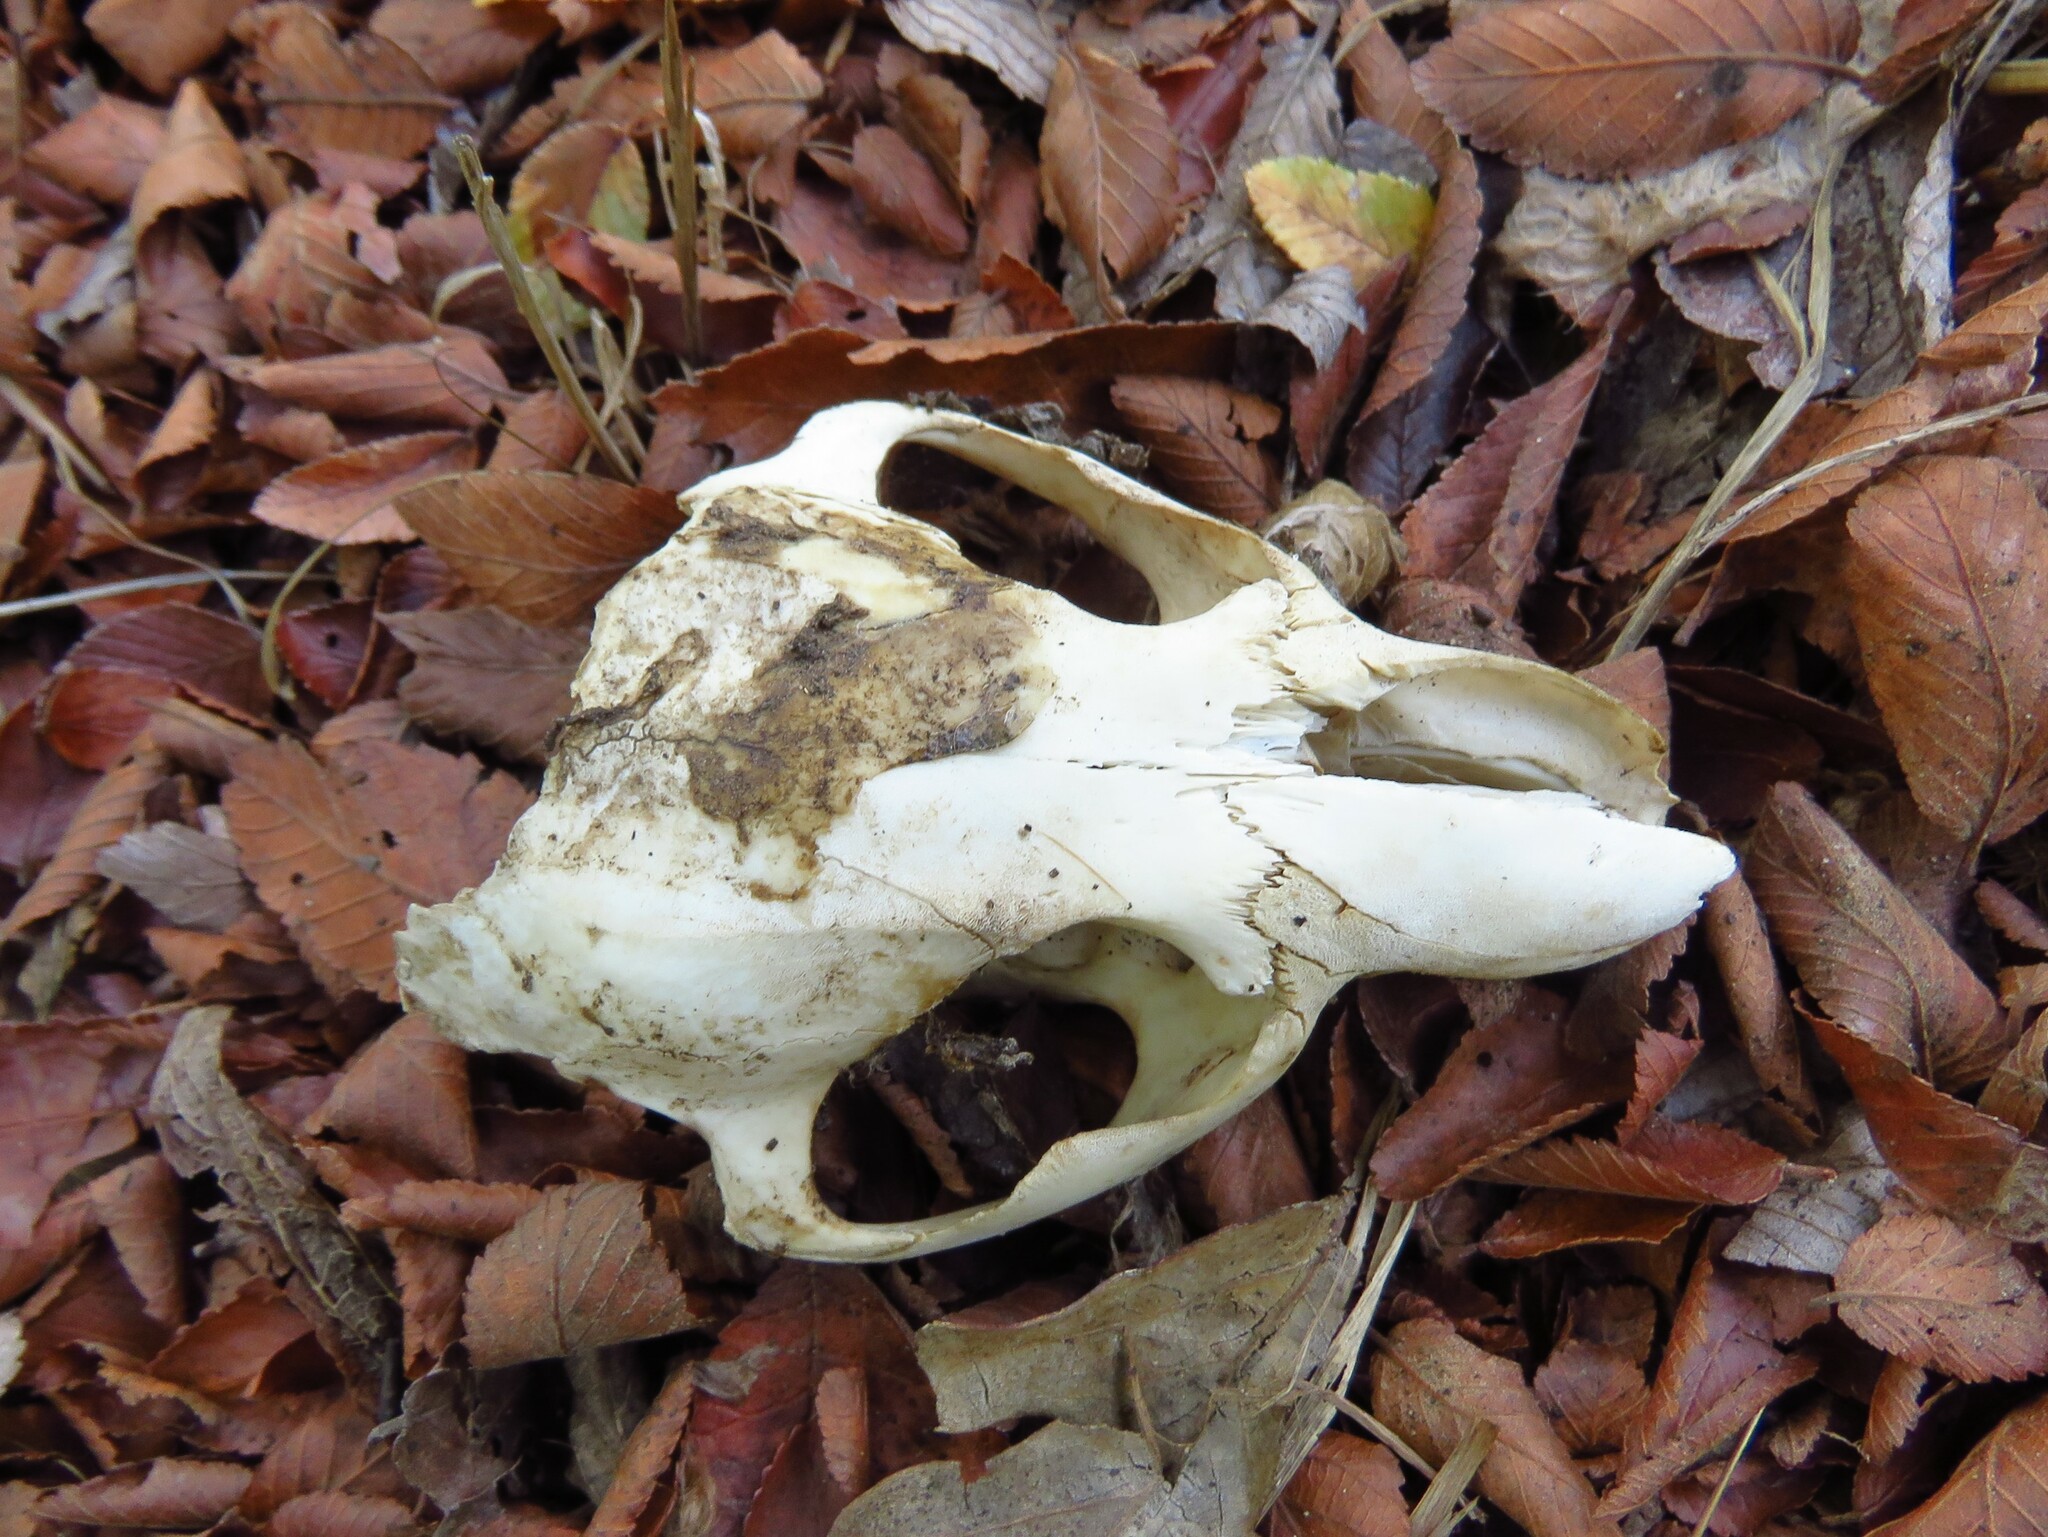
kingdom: Animalia
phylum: Chordata
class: Mammalia
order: Rodentia
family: Castoridae
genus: Castor
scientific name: Castor canadensis
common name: American beaver
